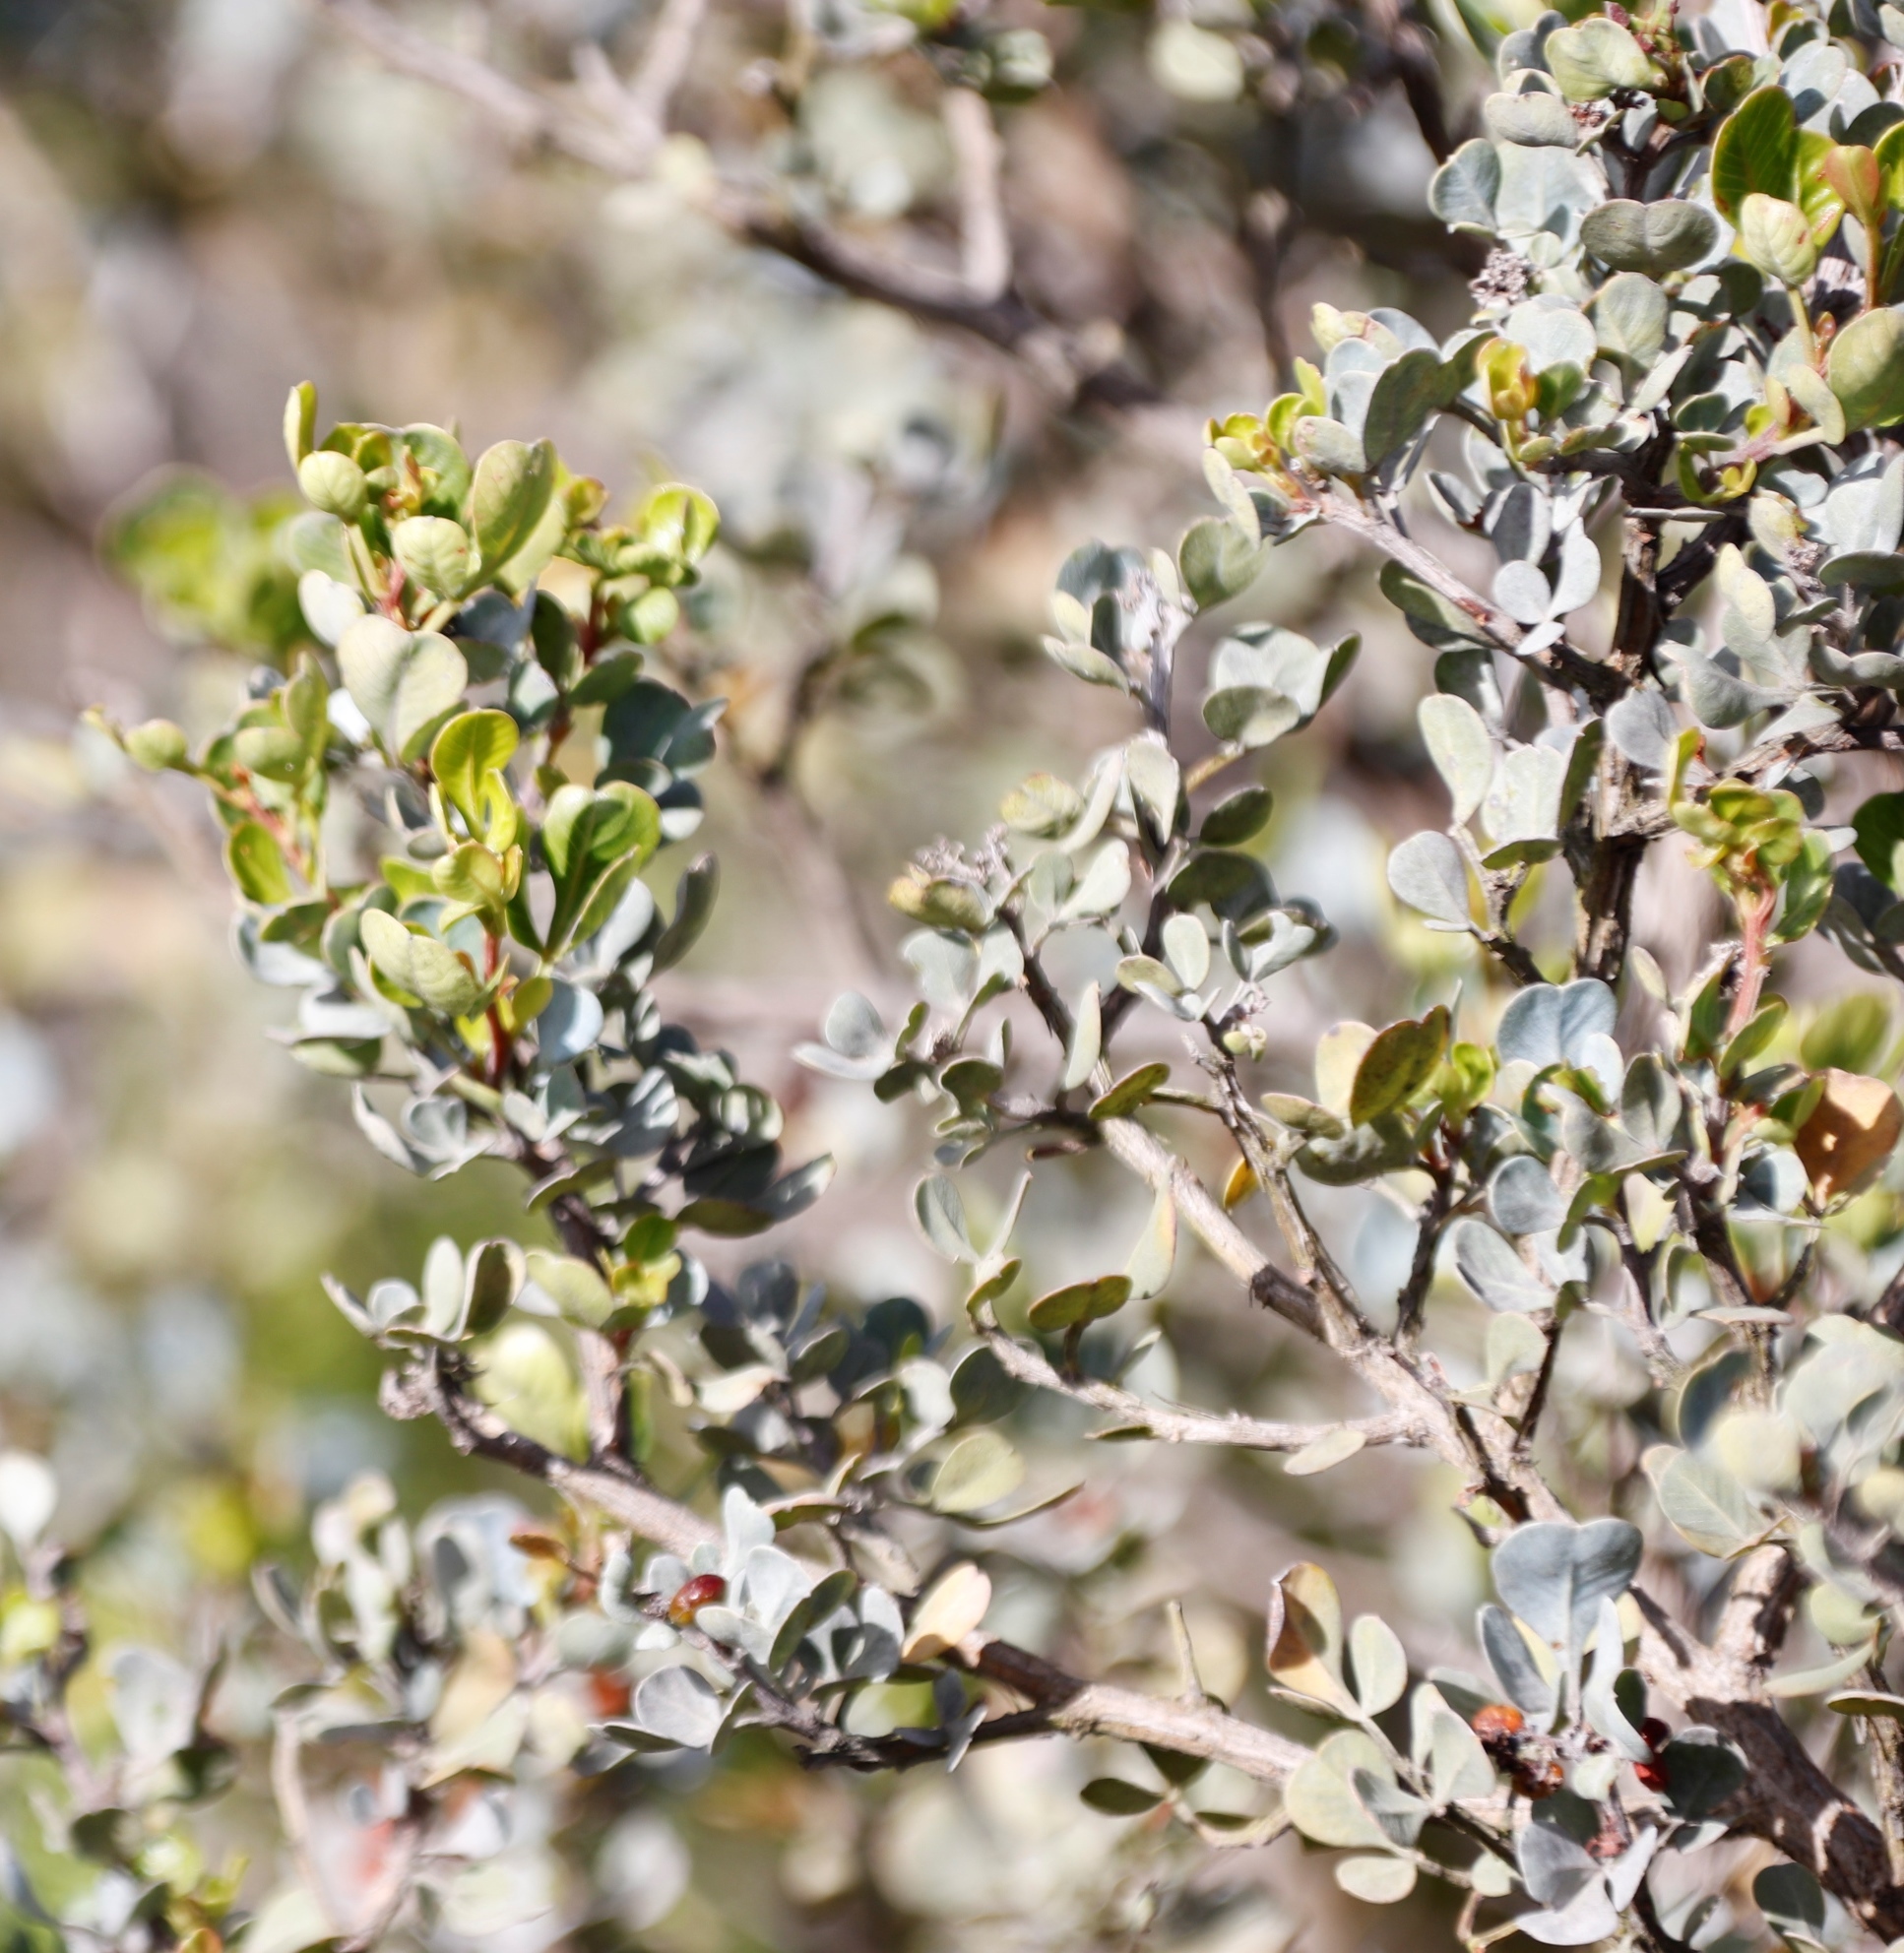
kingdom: Plantae
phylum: Tracheophyta
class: Magnoliopsida
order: Sapindales
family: Anacardiaceae
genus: Searsia
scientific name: Searsia glauca
